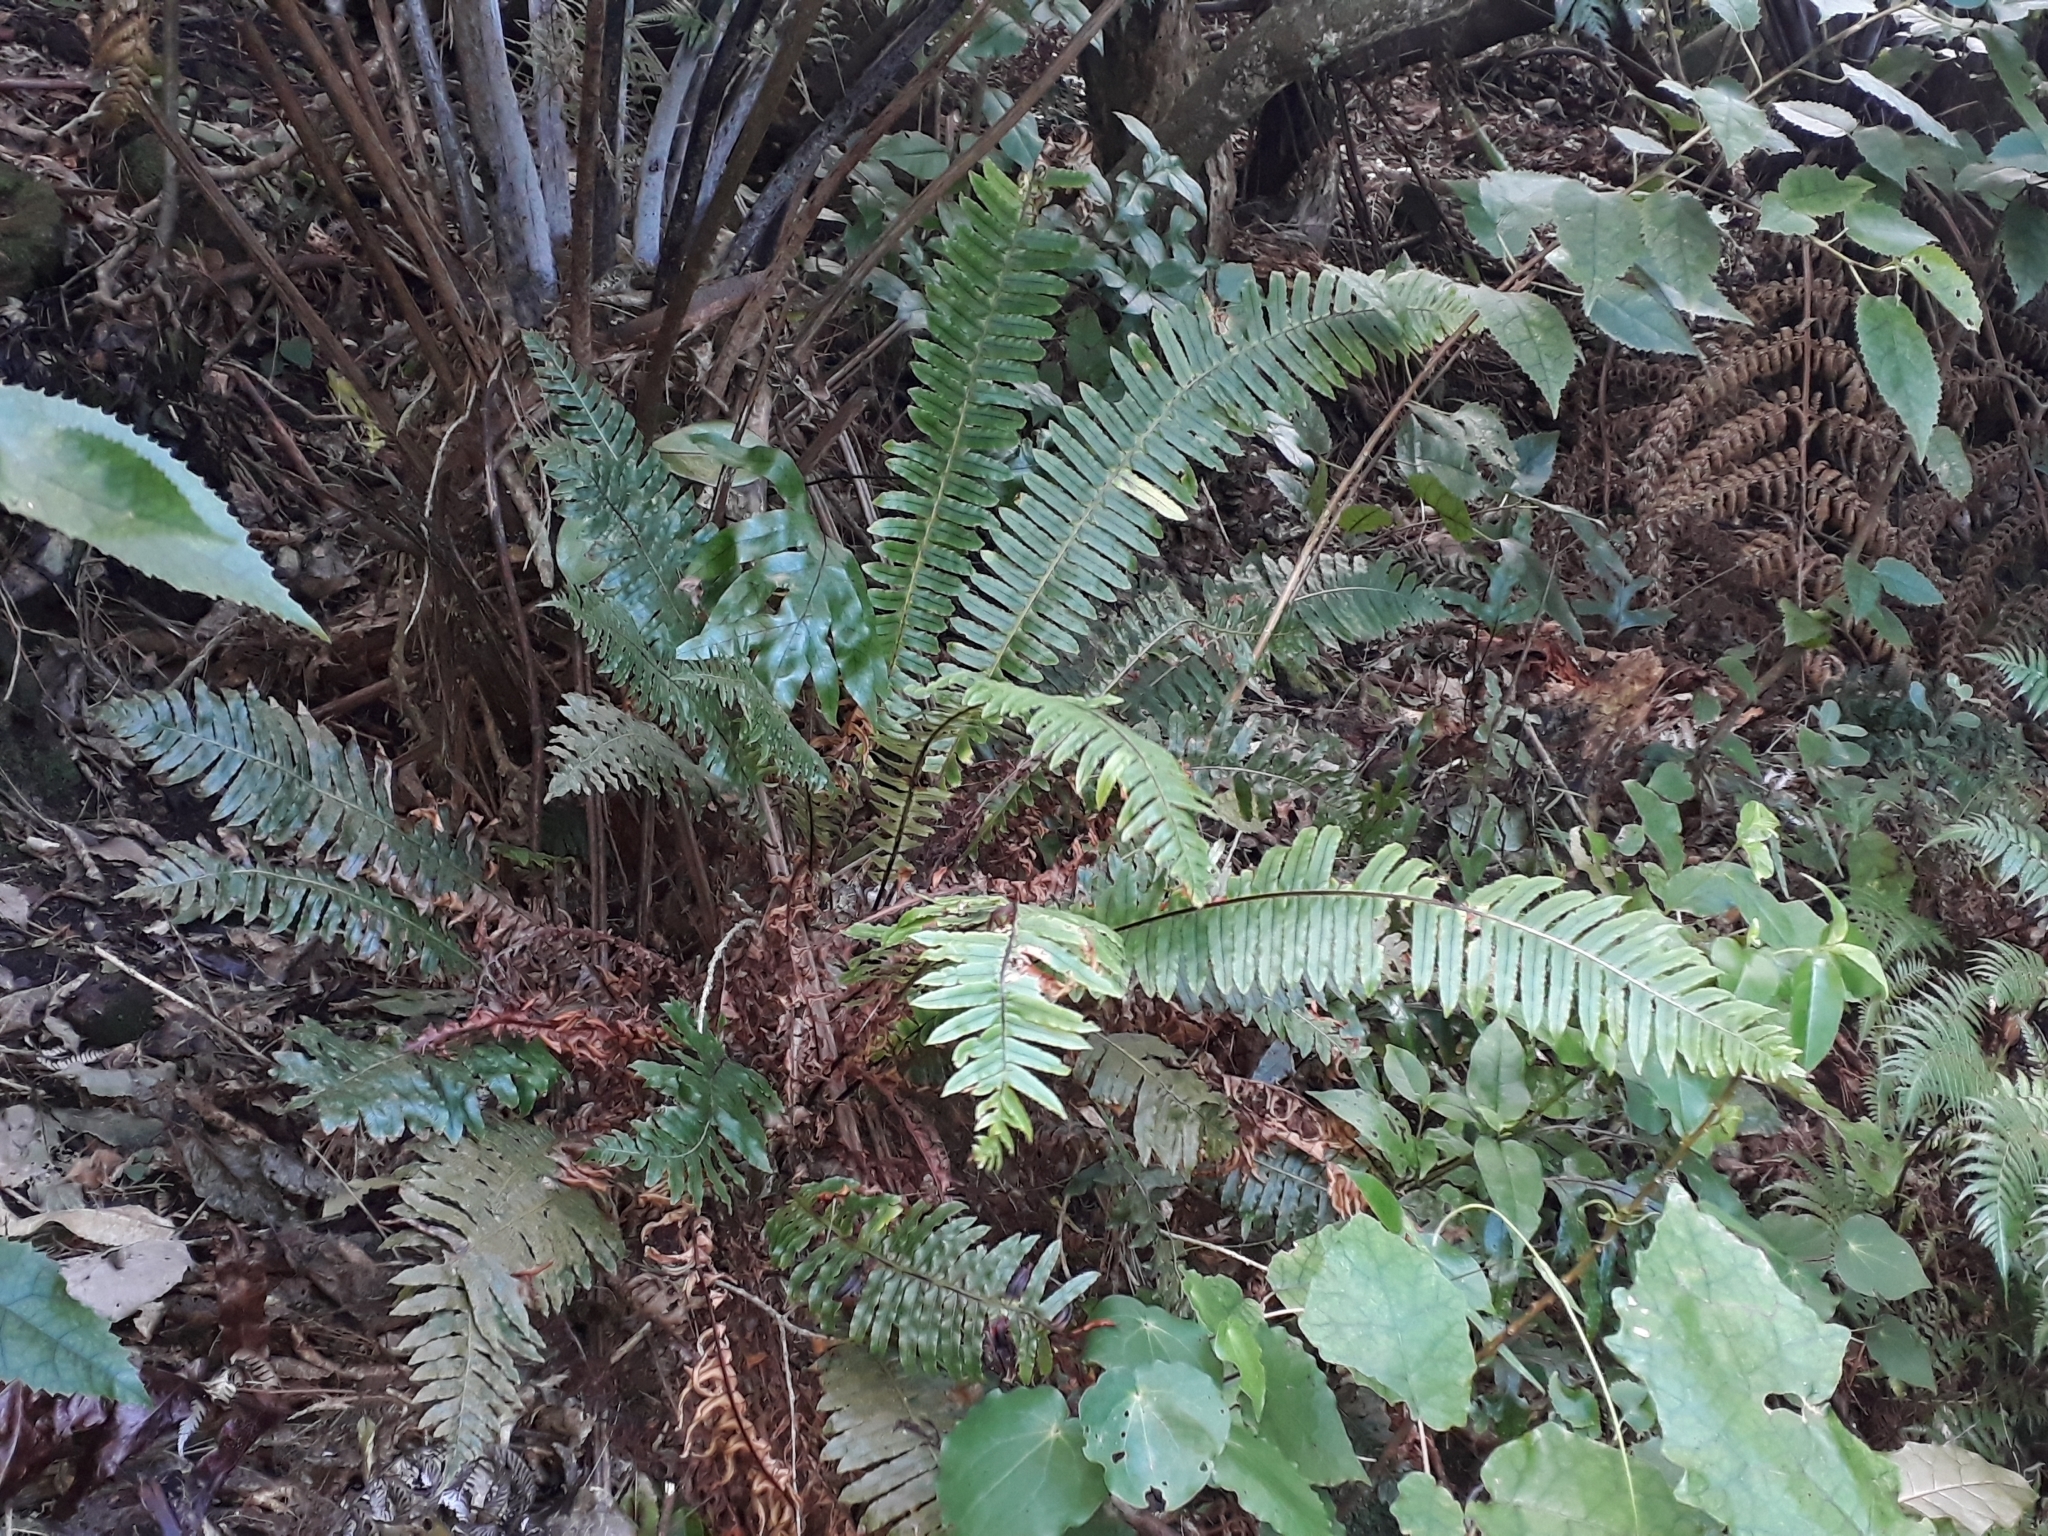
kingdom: Plantae
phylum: Tracheophyta
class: Polypodiopsida
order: Polypodiales
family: Blechnaceae
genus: Lomaria
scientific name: Lomaria discolor
